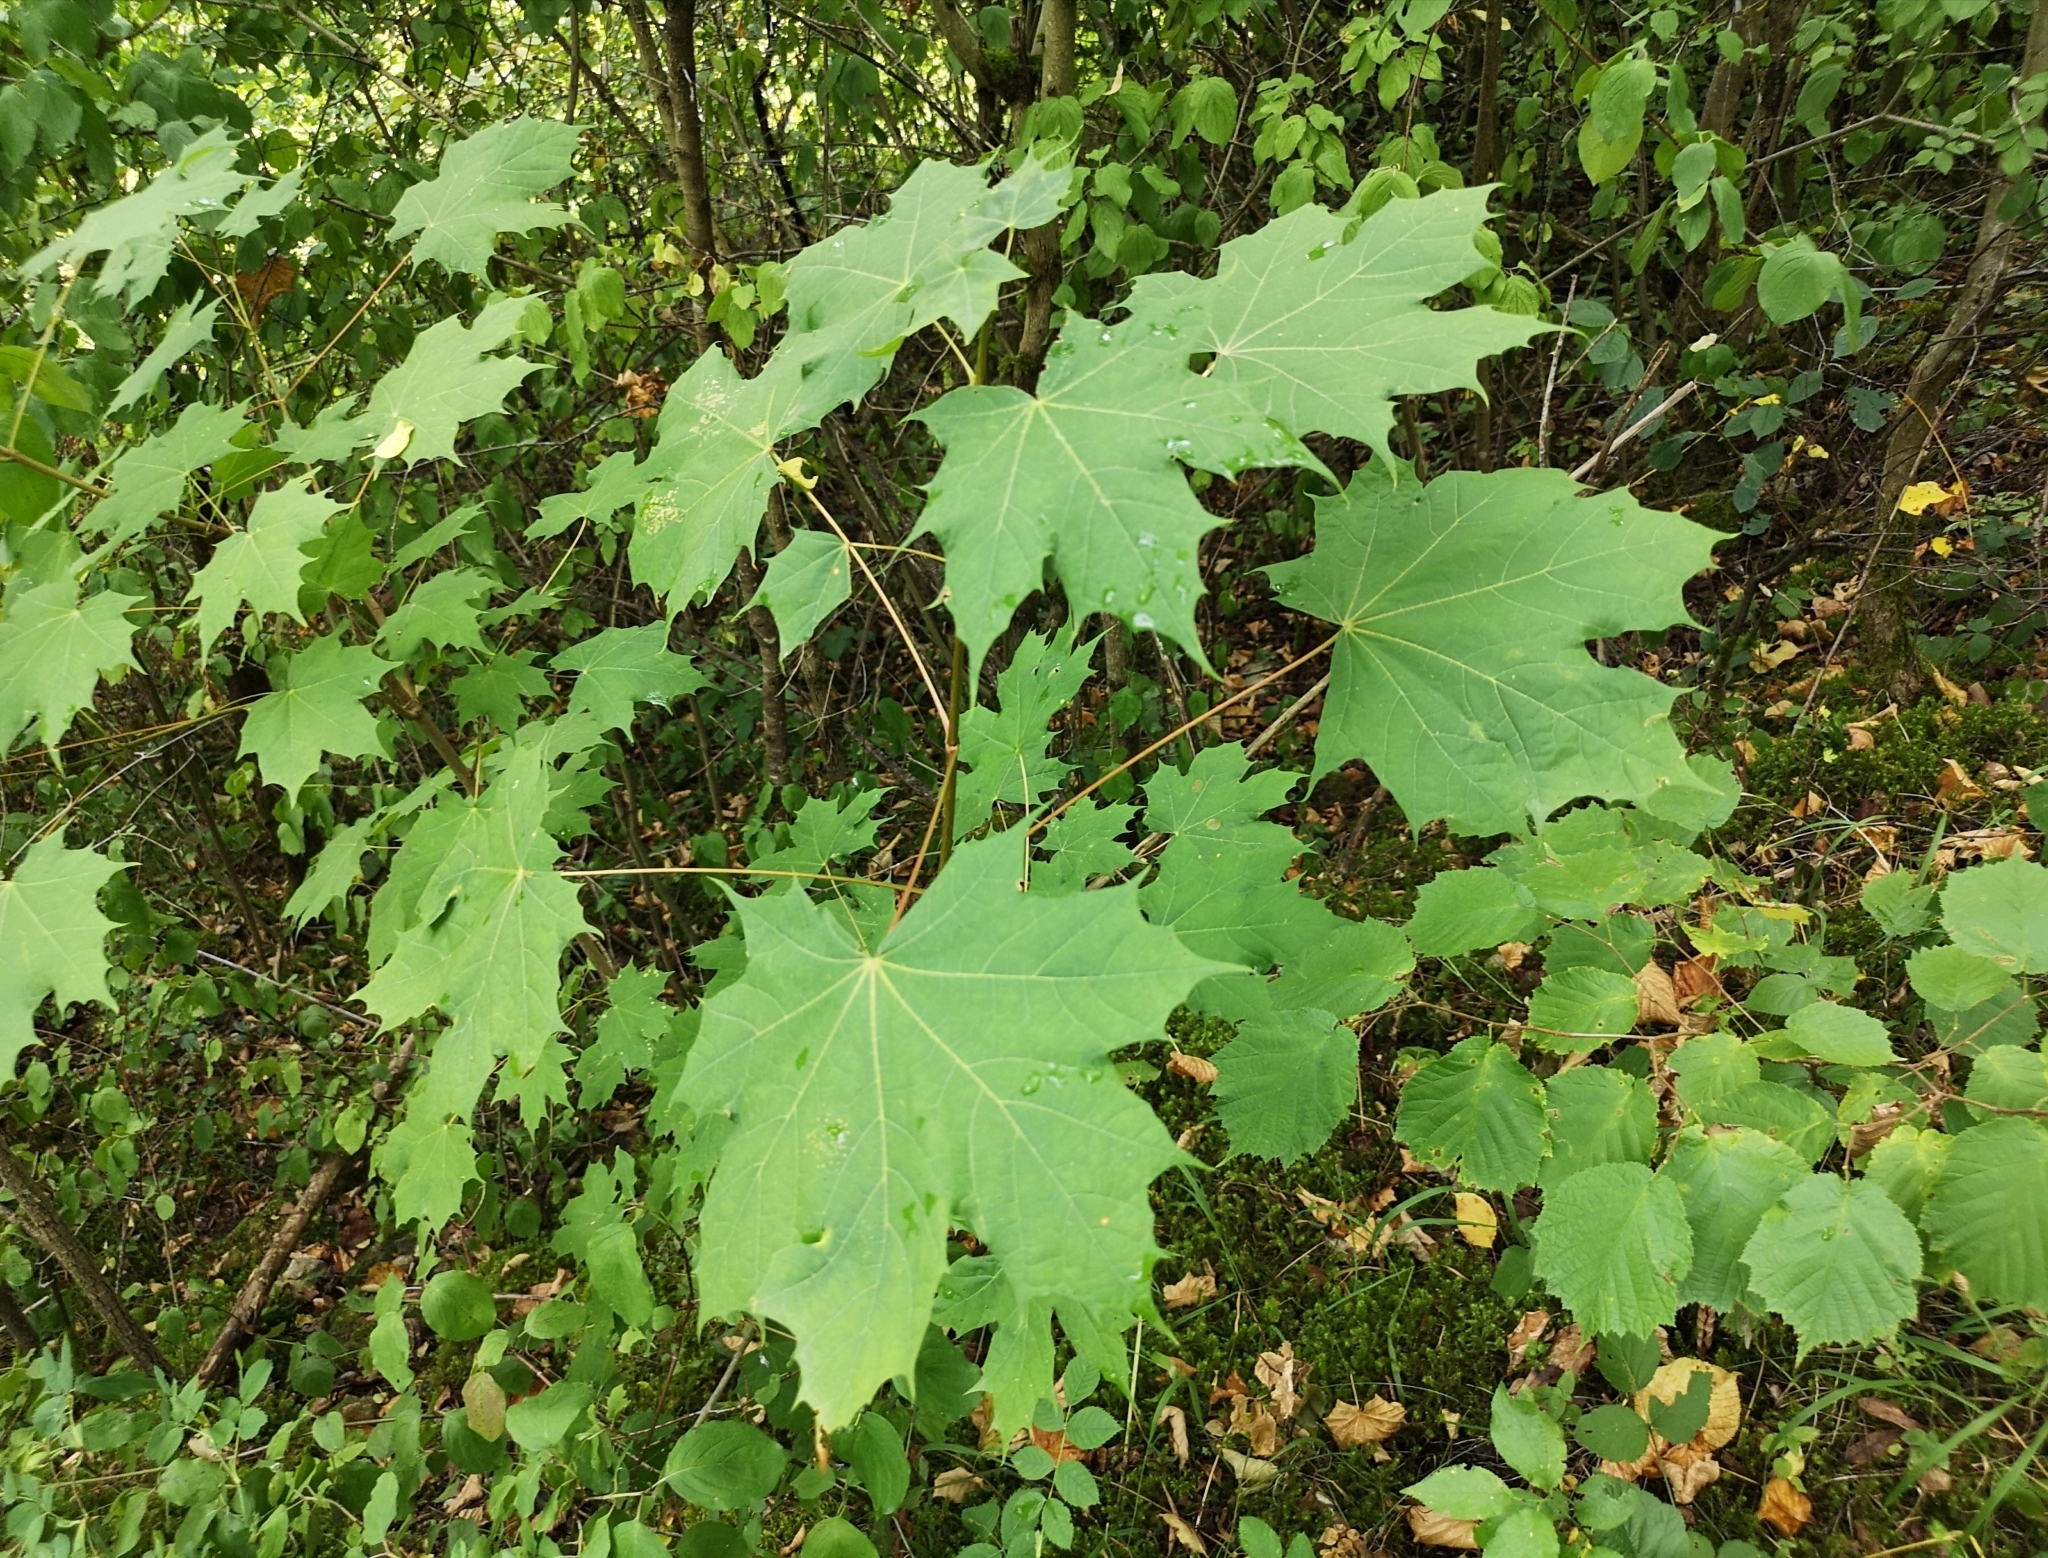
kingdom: Plantae
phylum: Tracheophyta
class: Magnoliopsida
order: Sapindales
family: Sapindaceae
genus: Acer
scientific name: Acer platanoides
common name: Norway maple
